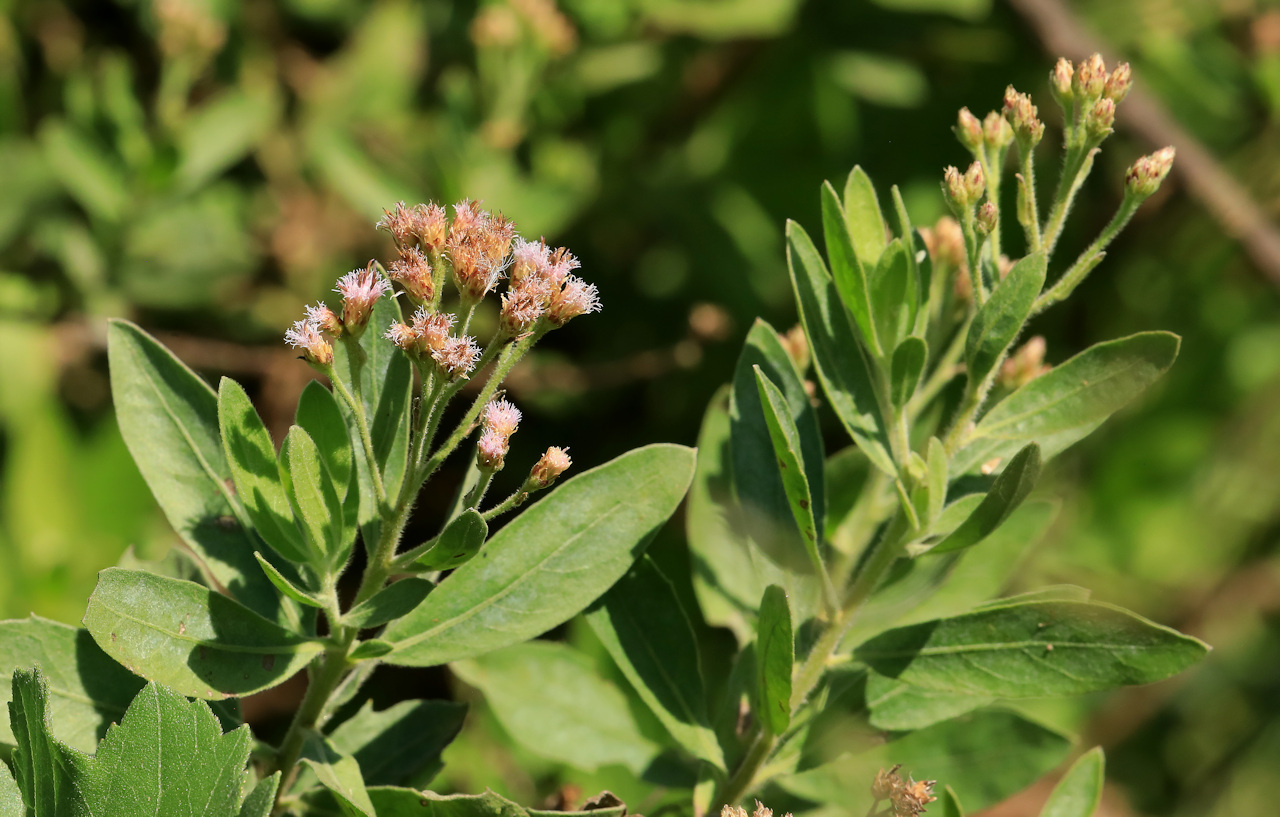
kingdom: Plantae
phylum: Tracheophyta
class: Magnoliopsida
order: Asterales
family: Asteraceae
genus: Pluchea
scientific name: Pluchea dioscoridis
